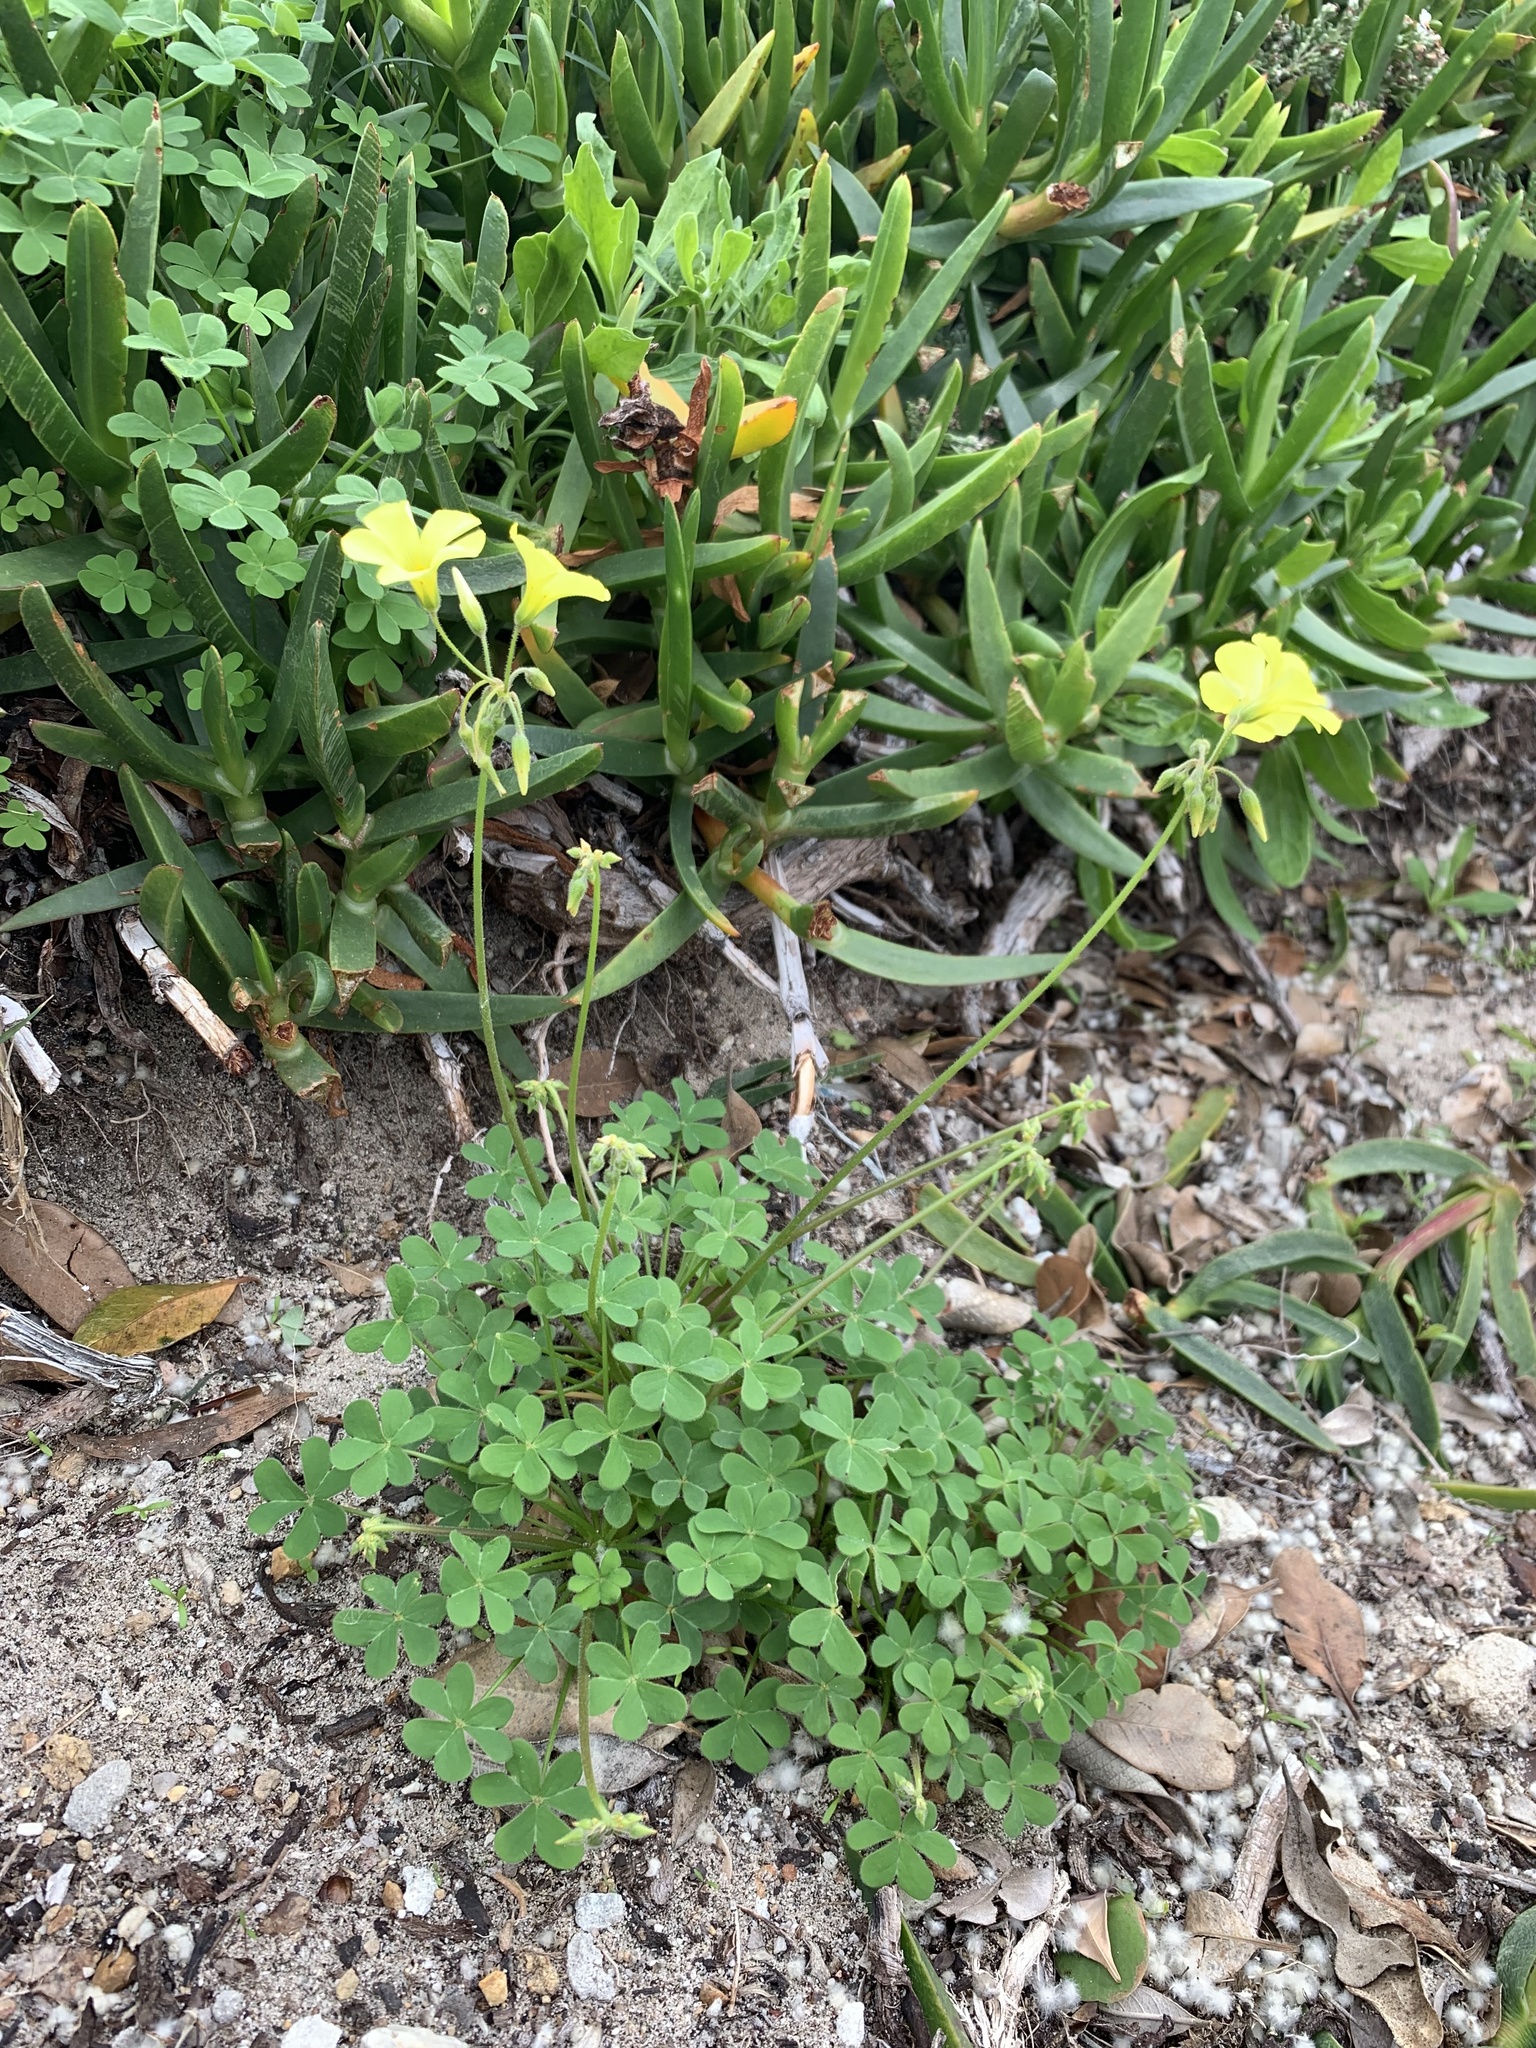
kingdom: Plantae
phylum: Tracheophyta
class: Magnoliopsida
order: Oxalidales
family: Oxalidaceae
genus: Oxalis
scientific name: Oxalis pes-caprae
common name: Bermuda-buttercup
